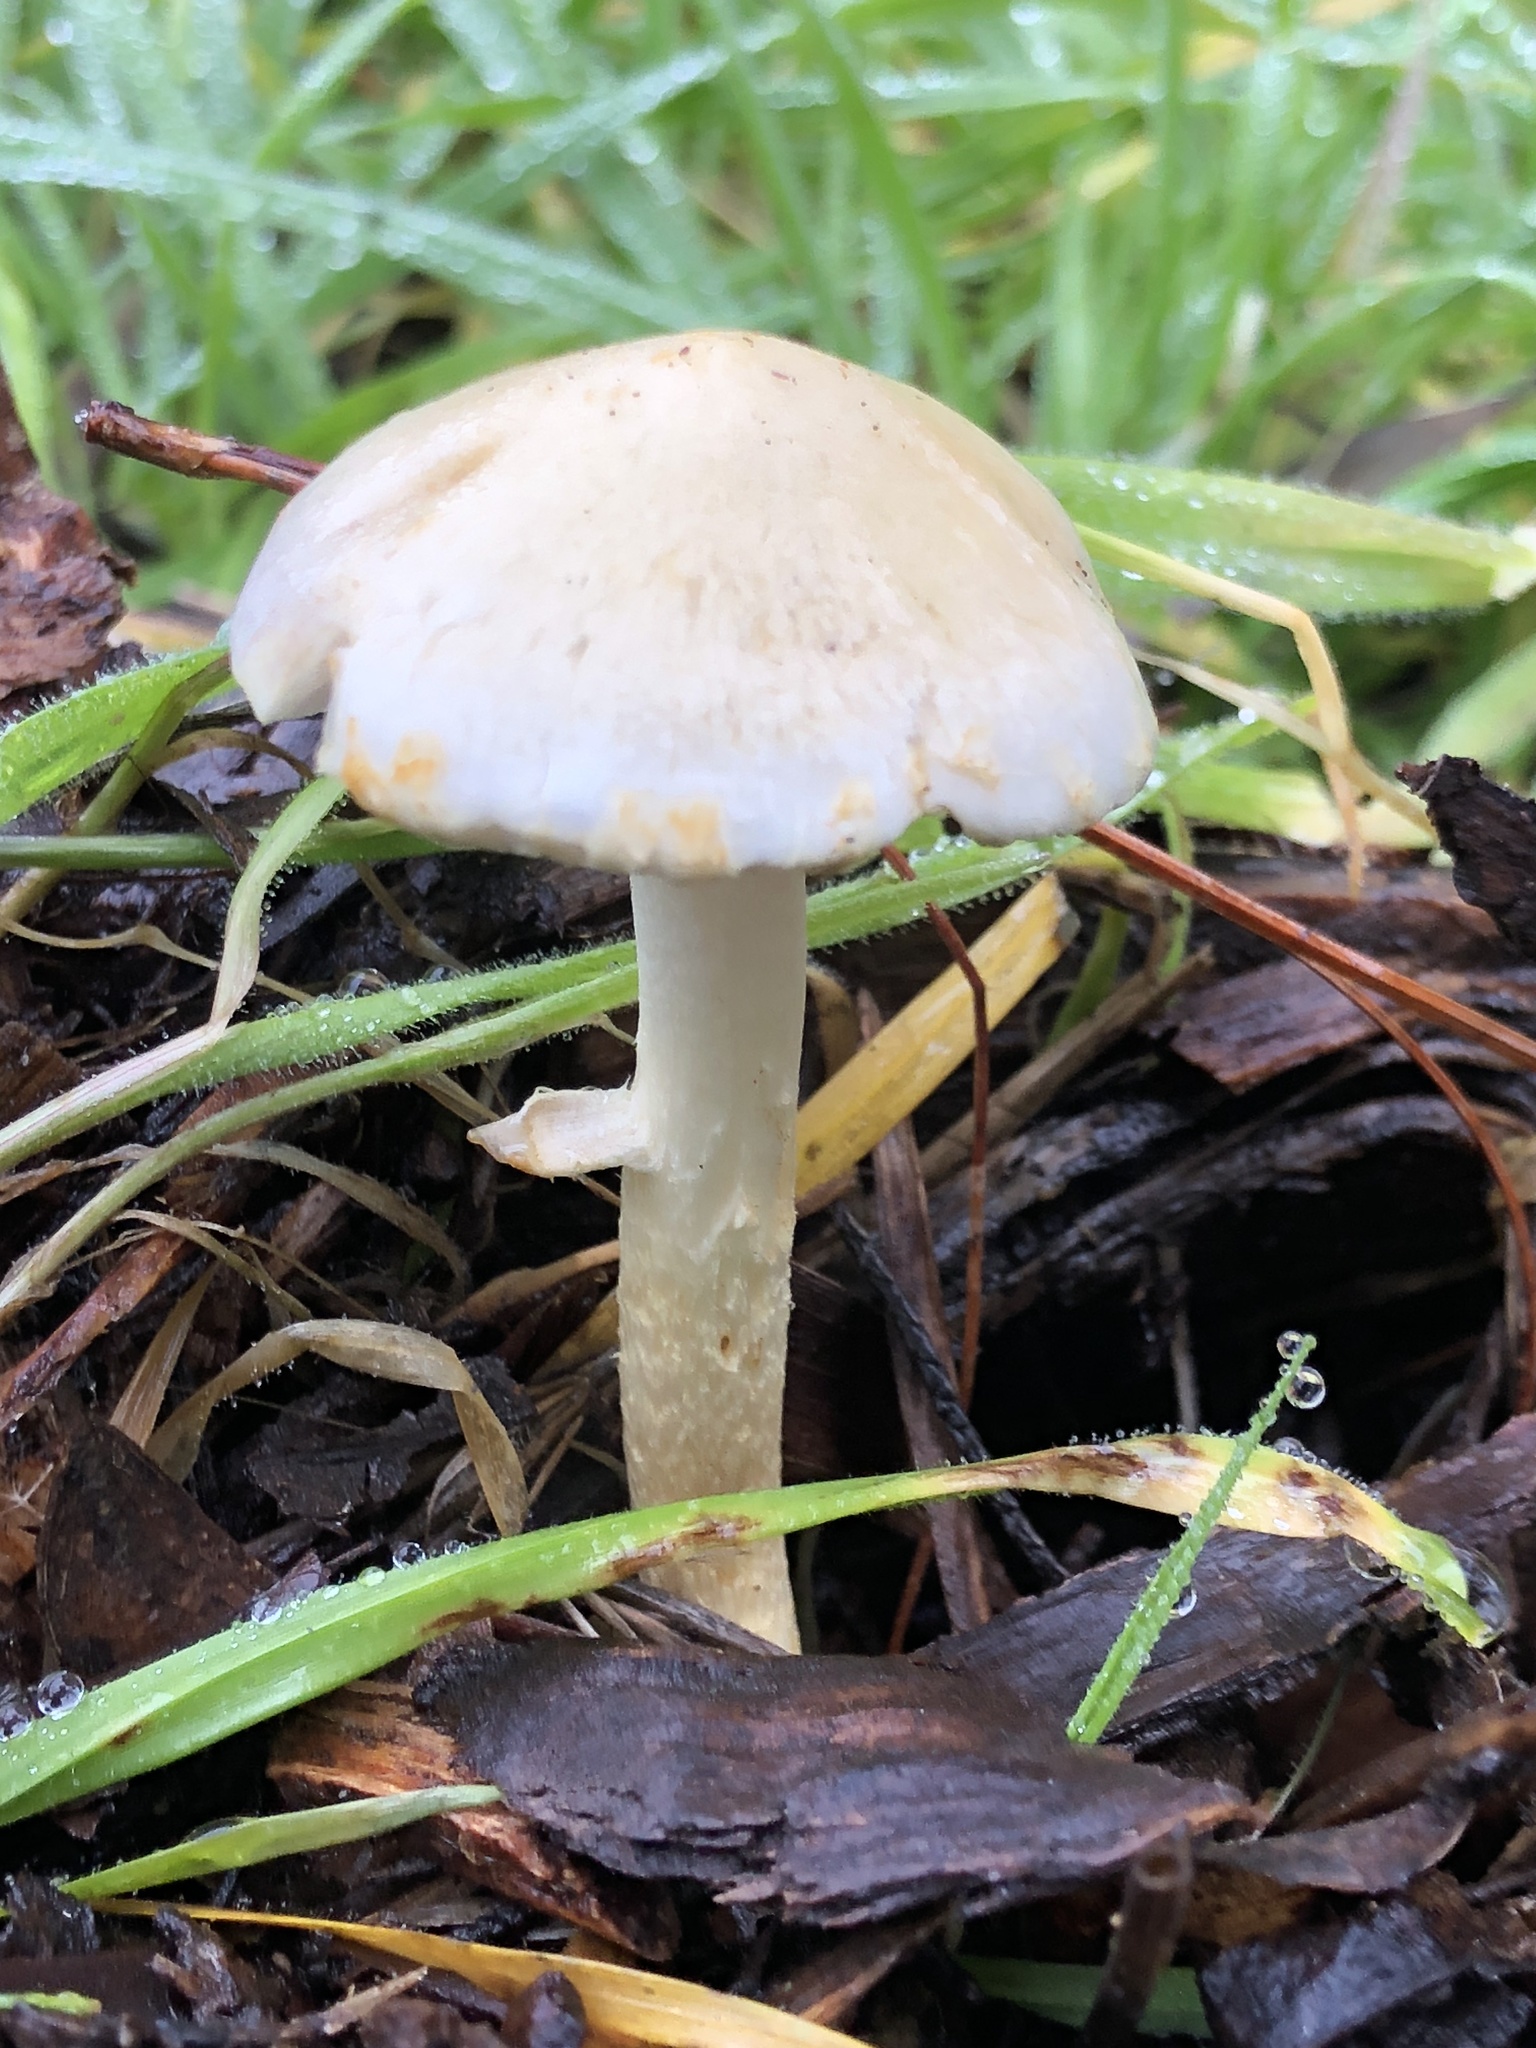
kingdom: Fungi
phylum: Basidiomycota
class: Agaricomycetes
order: Agaricales
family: Strophariaceae
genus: Leratiomyces
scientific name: Leratiomyces percevalii
